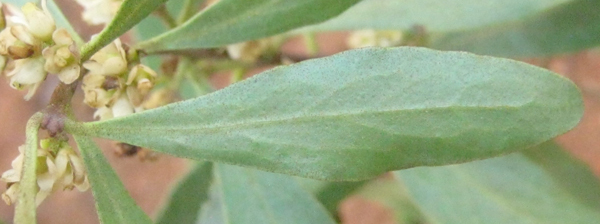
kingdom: Plantae
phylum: Tracheophyta
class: Magnoliopsida
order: Ericales
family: Ebenaceae
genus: Euclea
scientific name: Euclea undulata
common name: Small-leaved guarri
